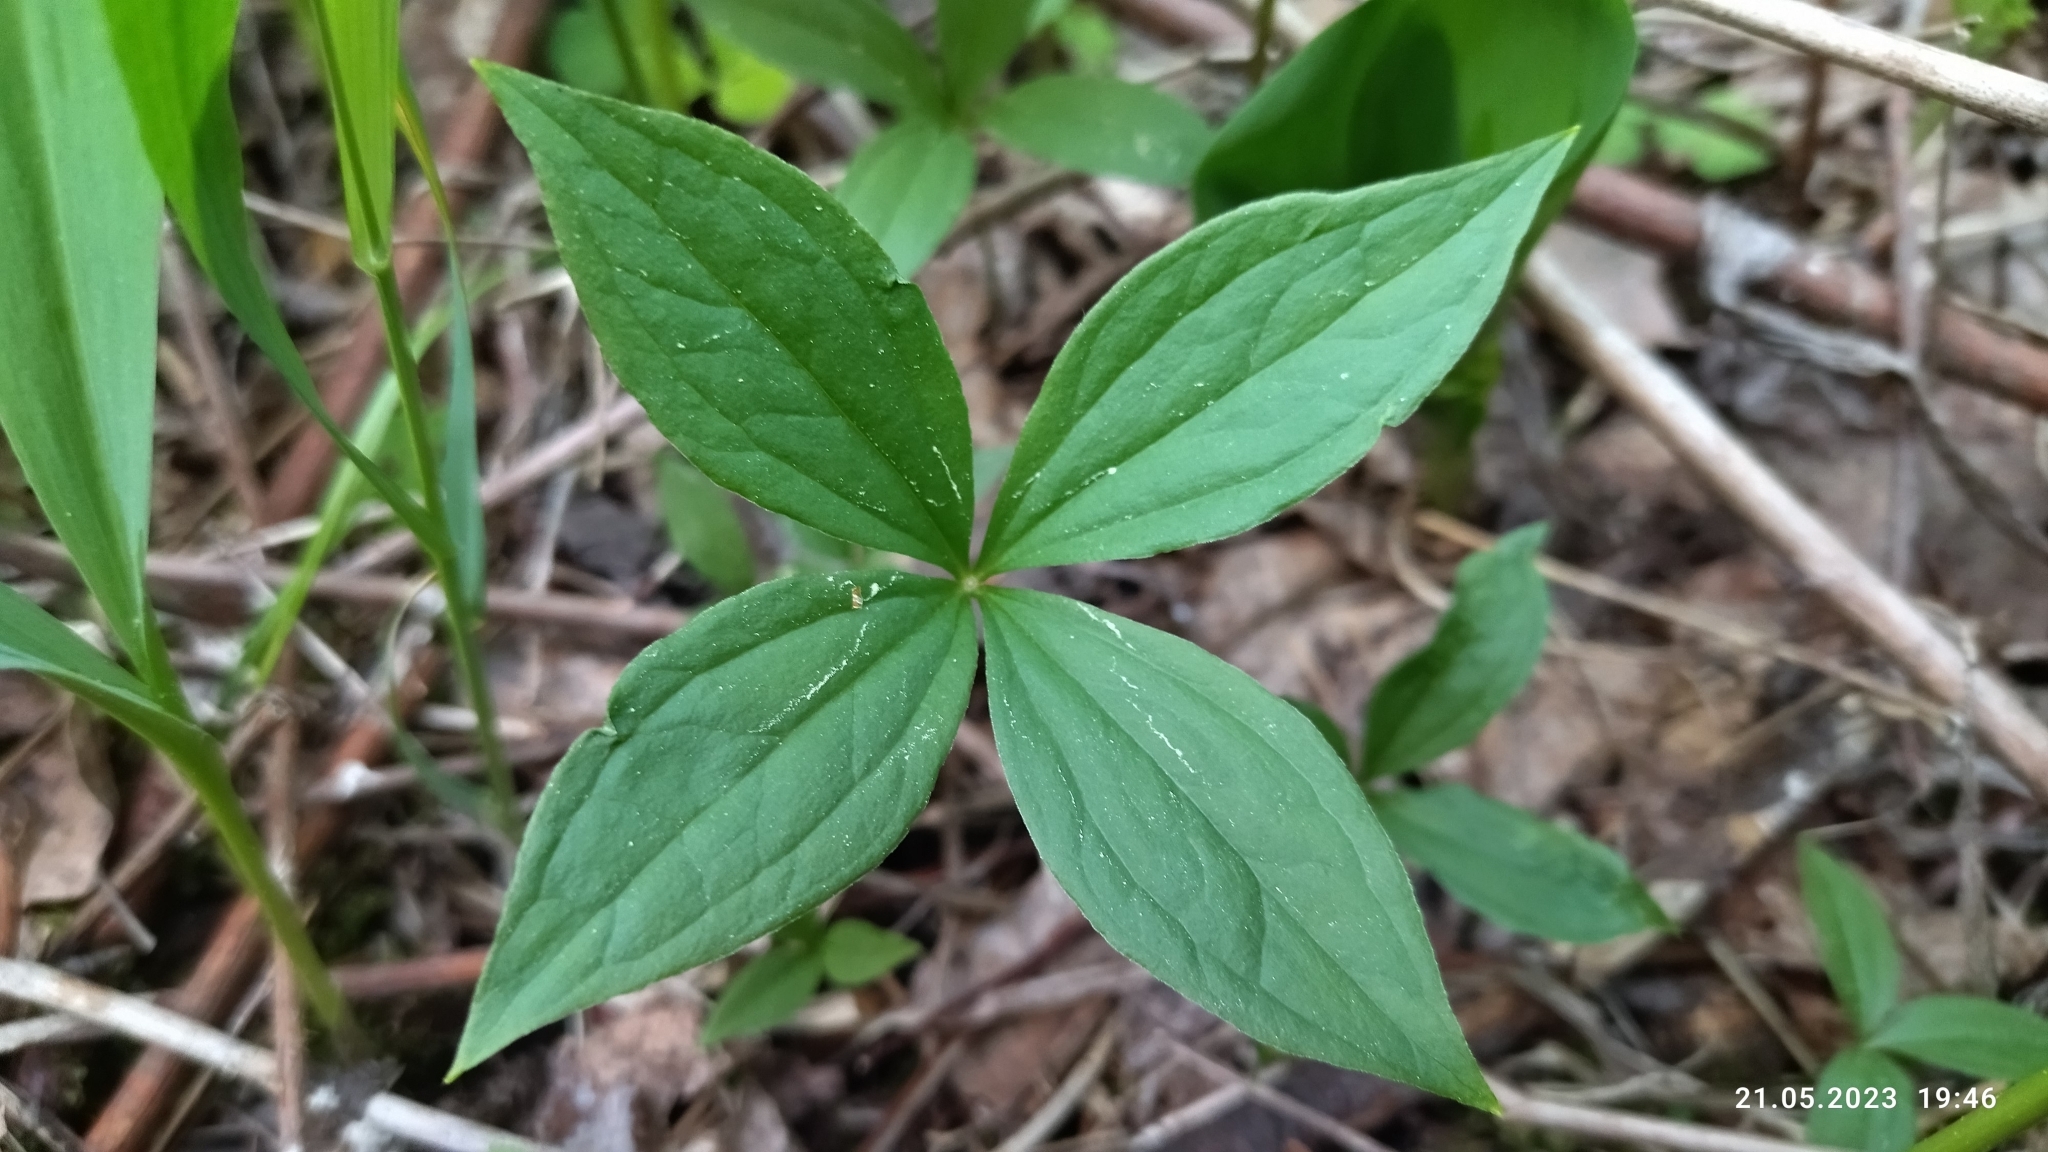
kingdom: Plantae
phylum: Tracheophyta
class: Liliopsida
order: Liliales
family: Melanthiaceae
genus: Paris
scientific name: Paris quadrifolia
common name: Herb-paris
